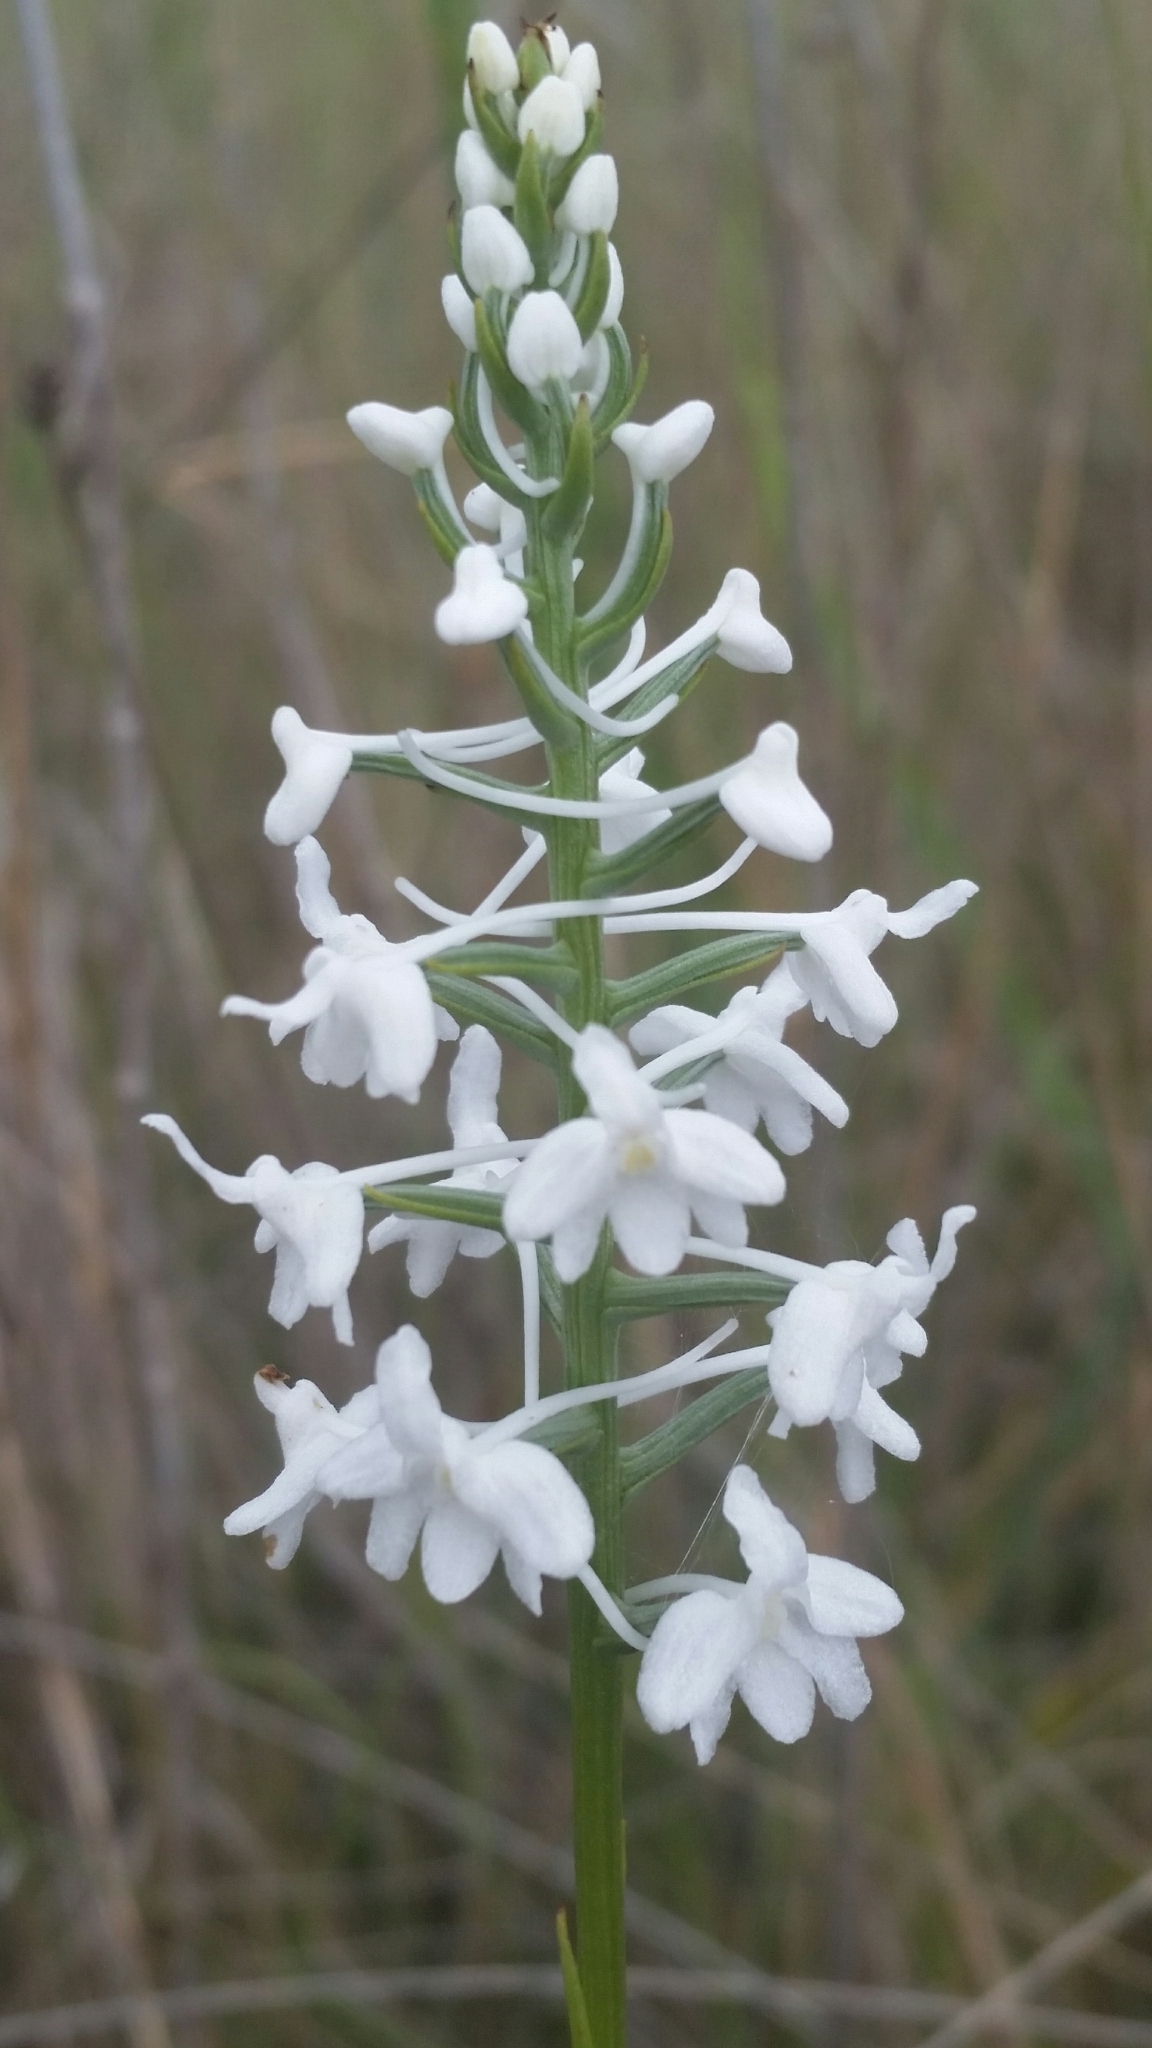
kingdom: Plantae
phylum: Tracheophyta
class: Liliopsida
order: Asparagales
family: Orchidaceae
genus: Platanthera
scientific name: Platanthera nivea
